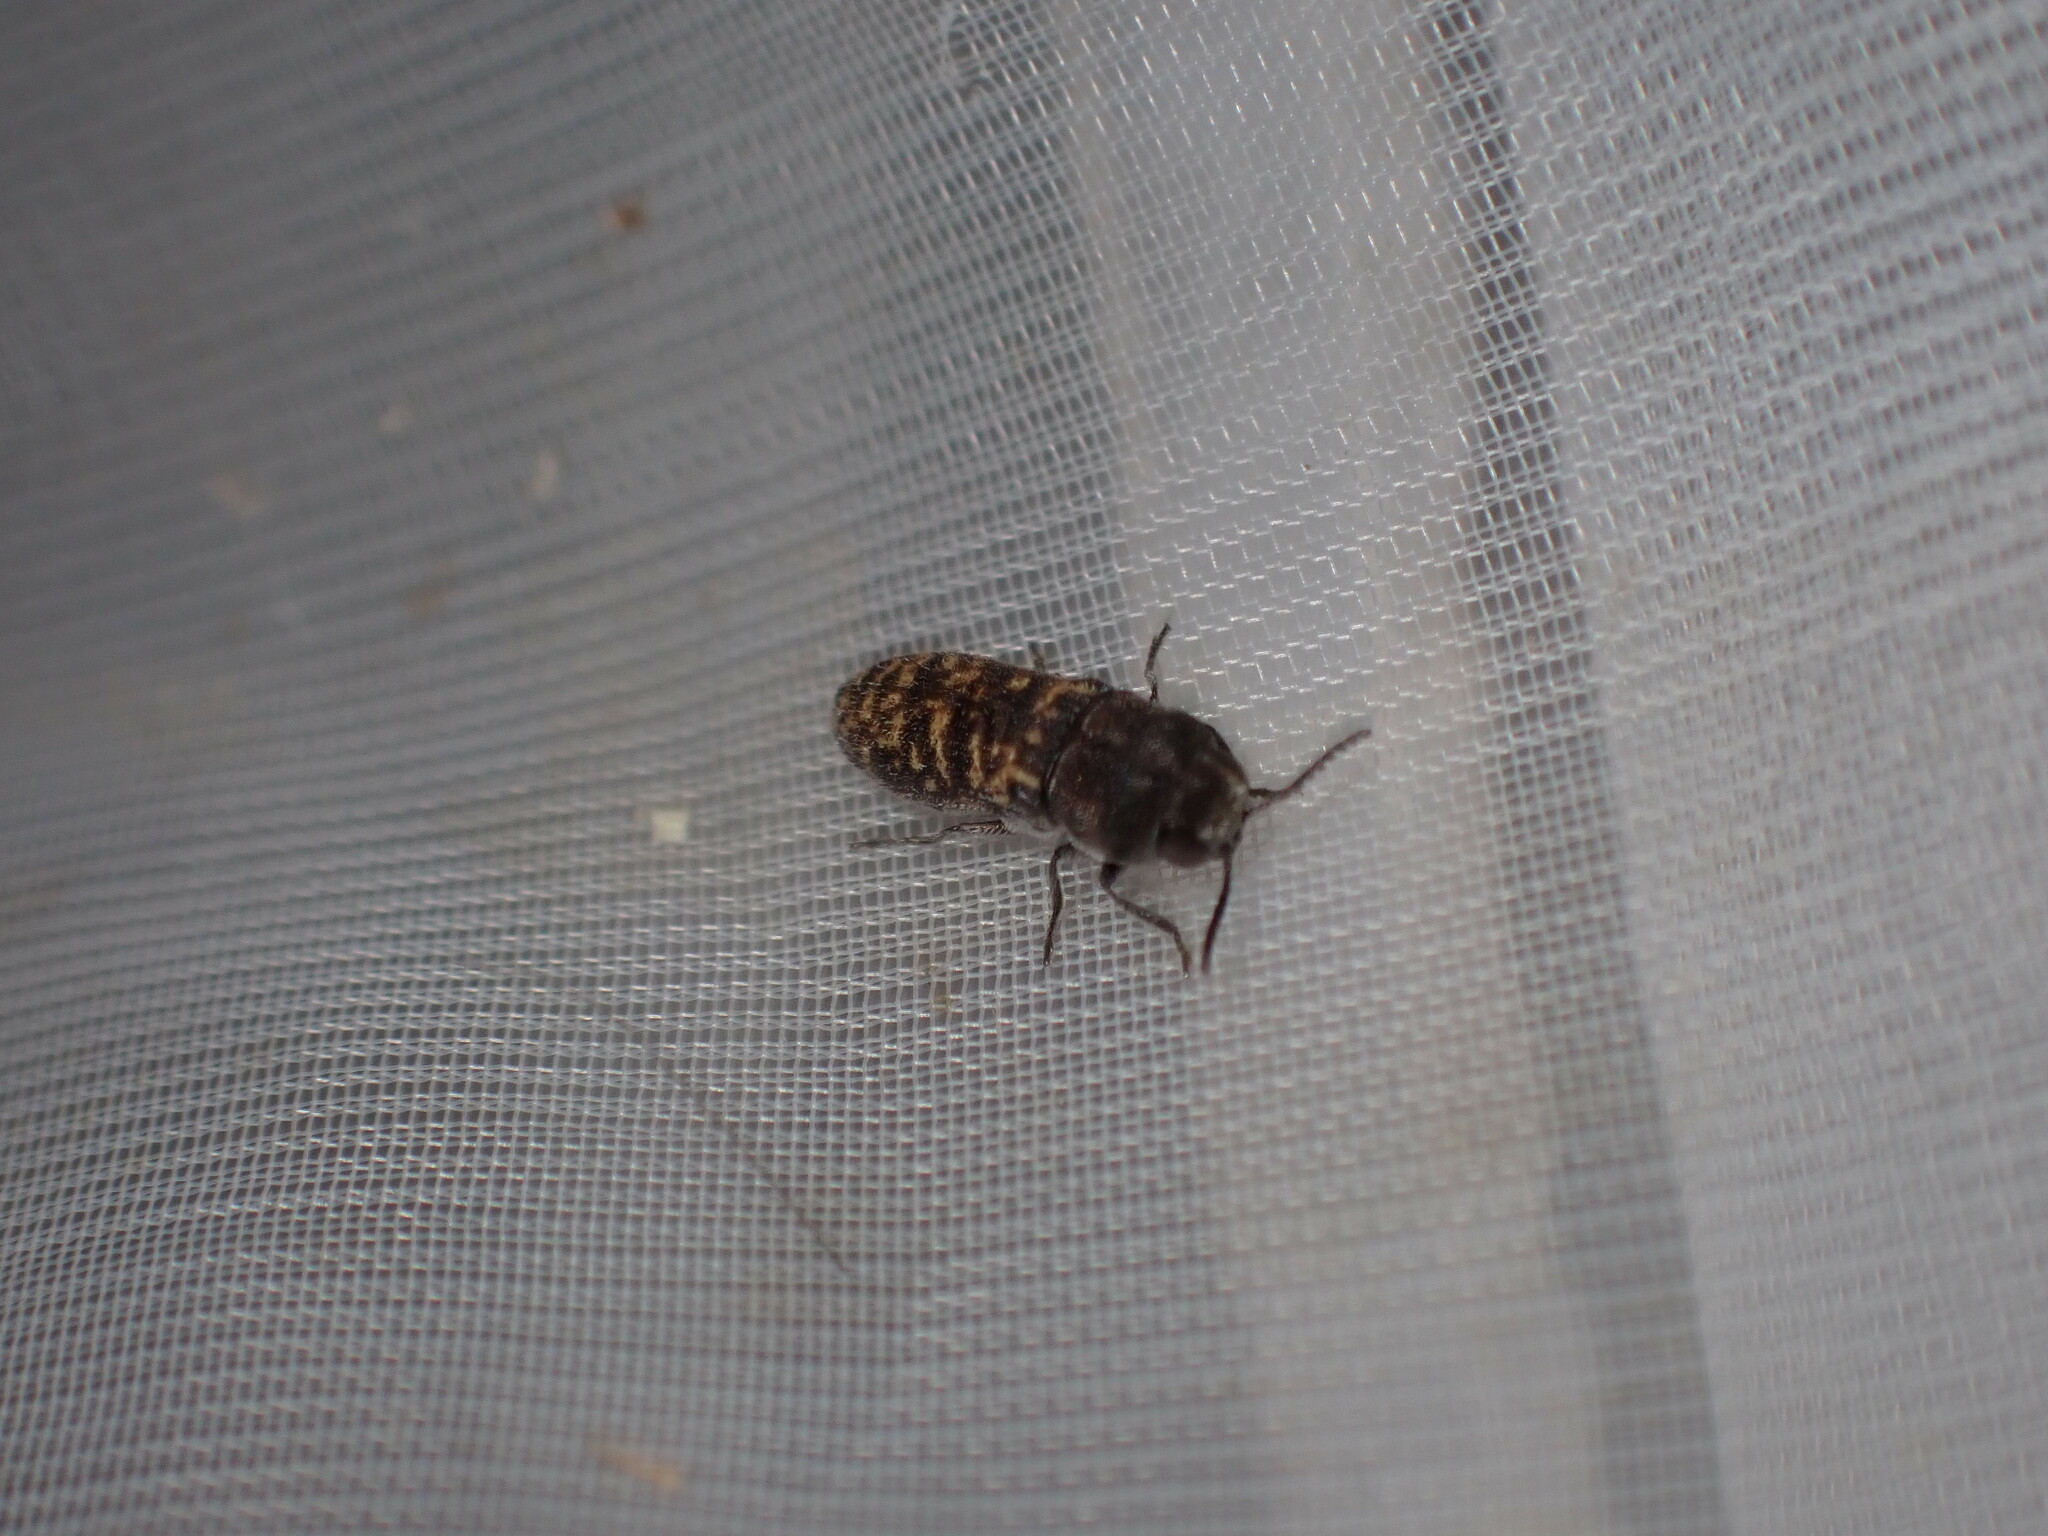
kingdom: Animalia
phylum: Arthropoda
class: Insecta
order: Coleoptera
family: Buprestidae
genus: Acmaeoderella
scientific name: Acmaeoderella adspersula
